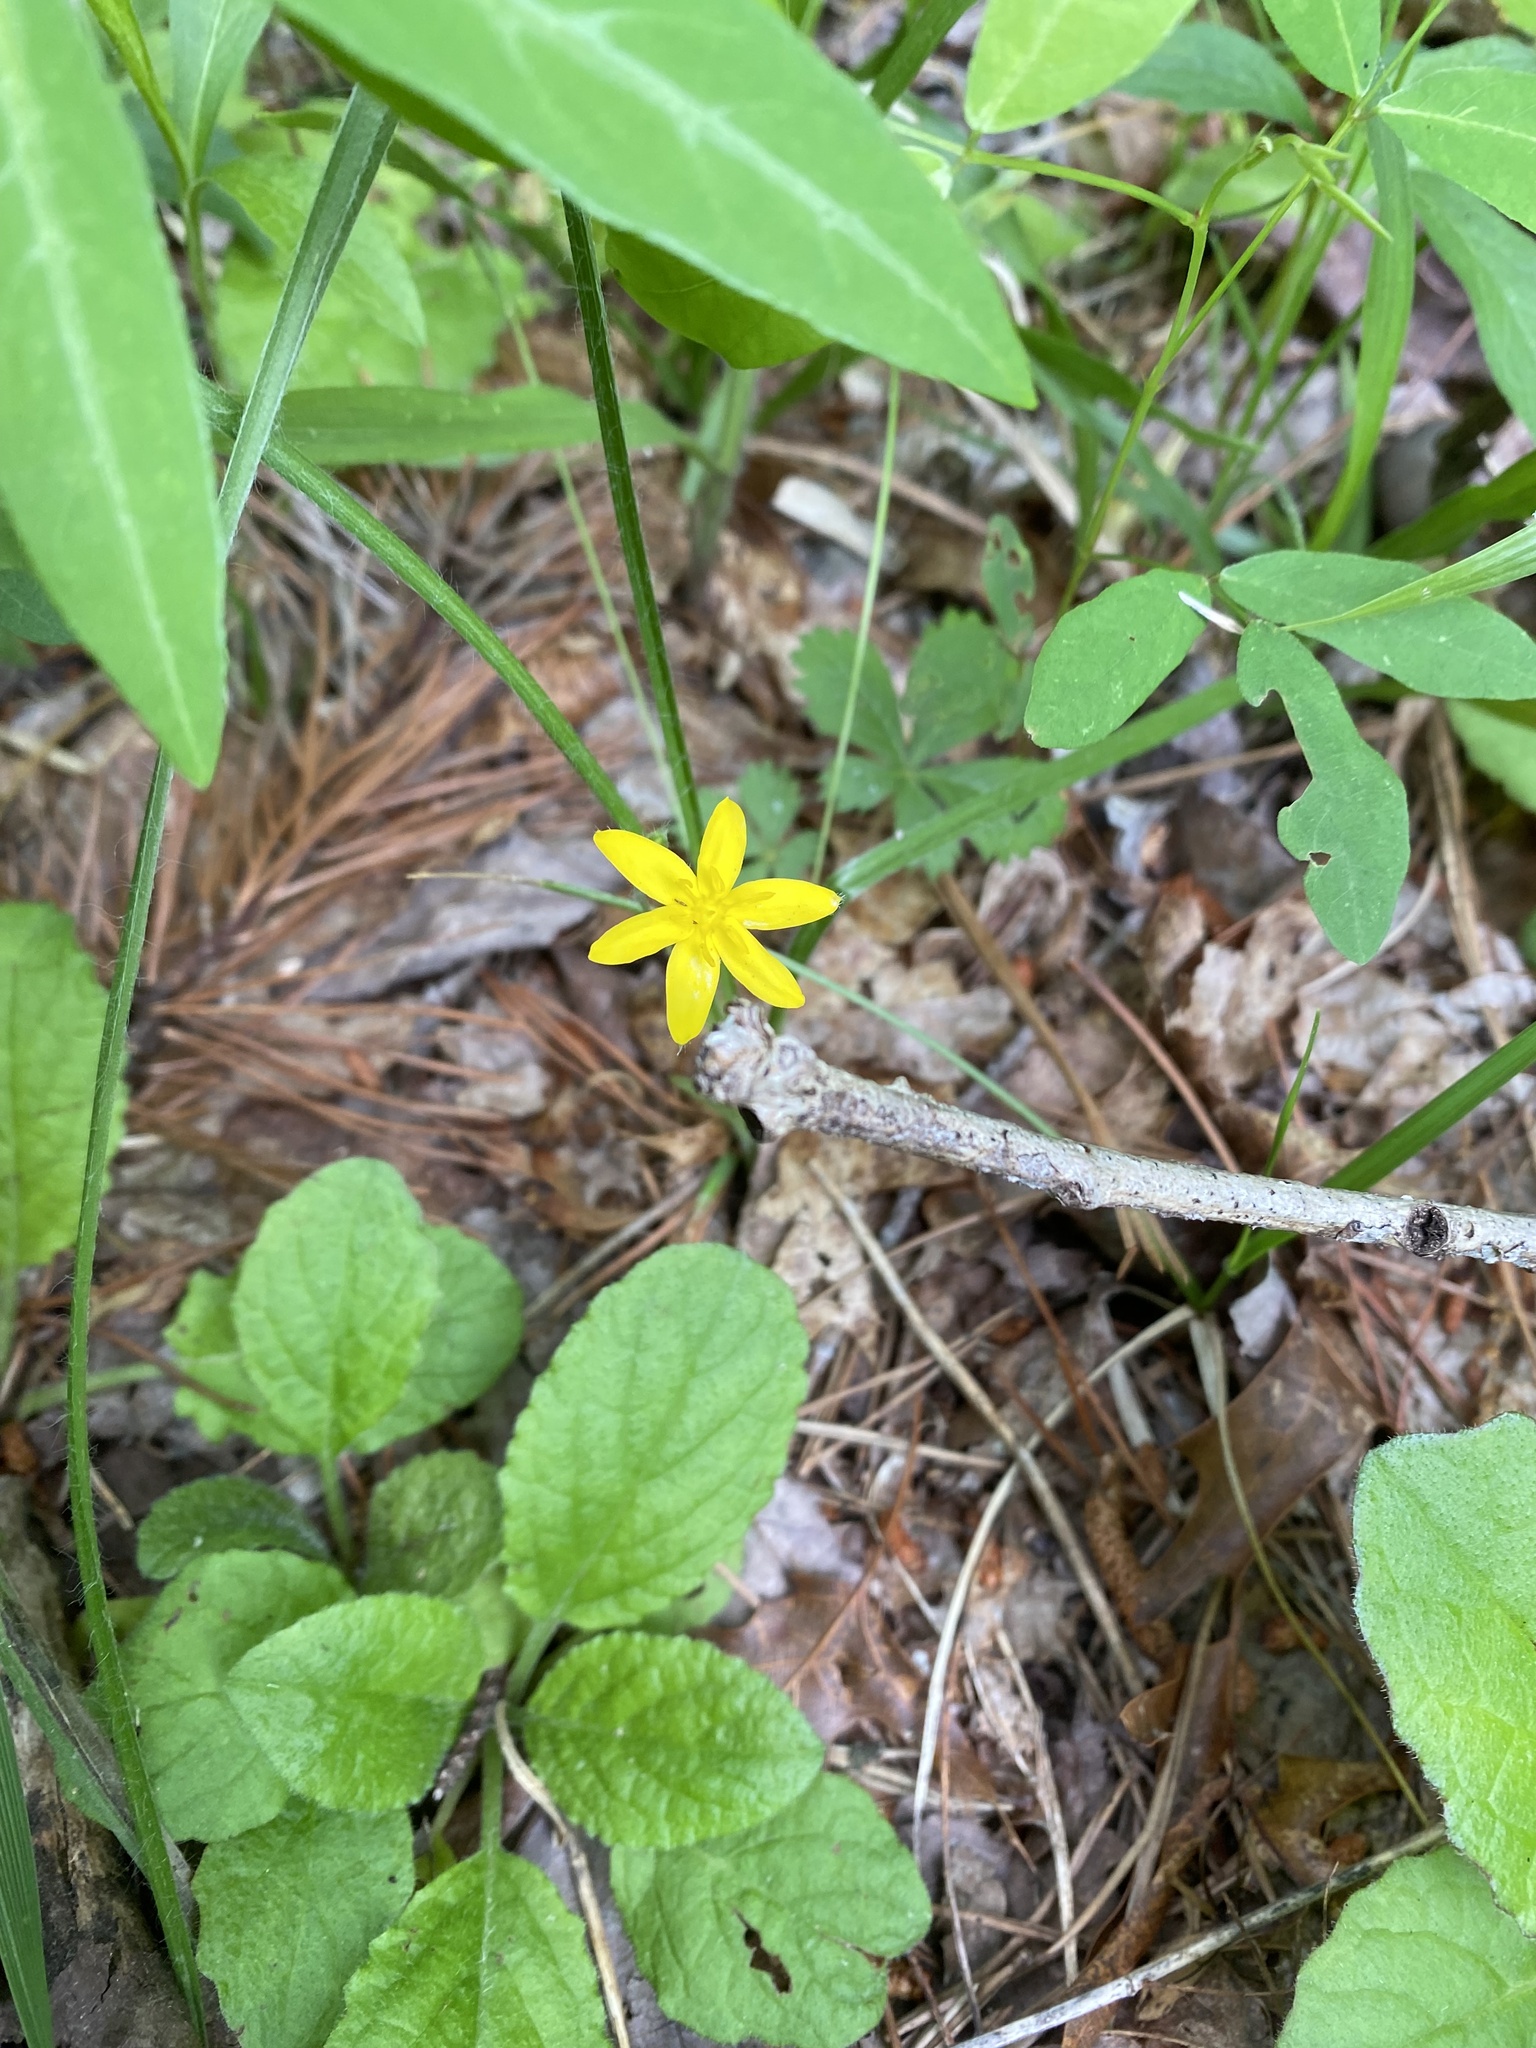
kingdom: Plantae
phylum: Tracheophyta
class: Liliopsida
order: Asparagales
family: Hypoxidaceae
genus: Hypoxis
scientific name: Hypoxis hirsuta
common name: Common goldstar
